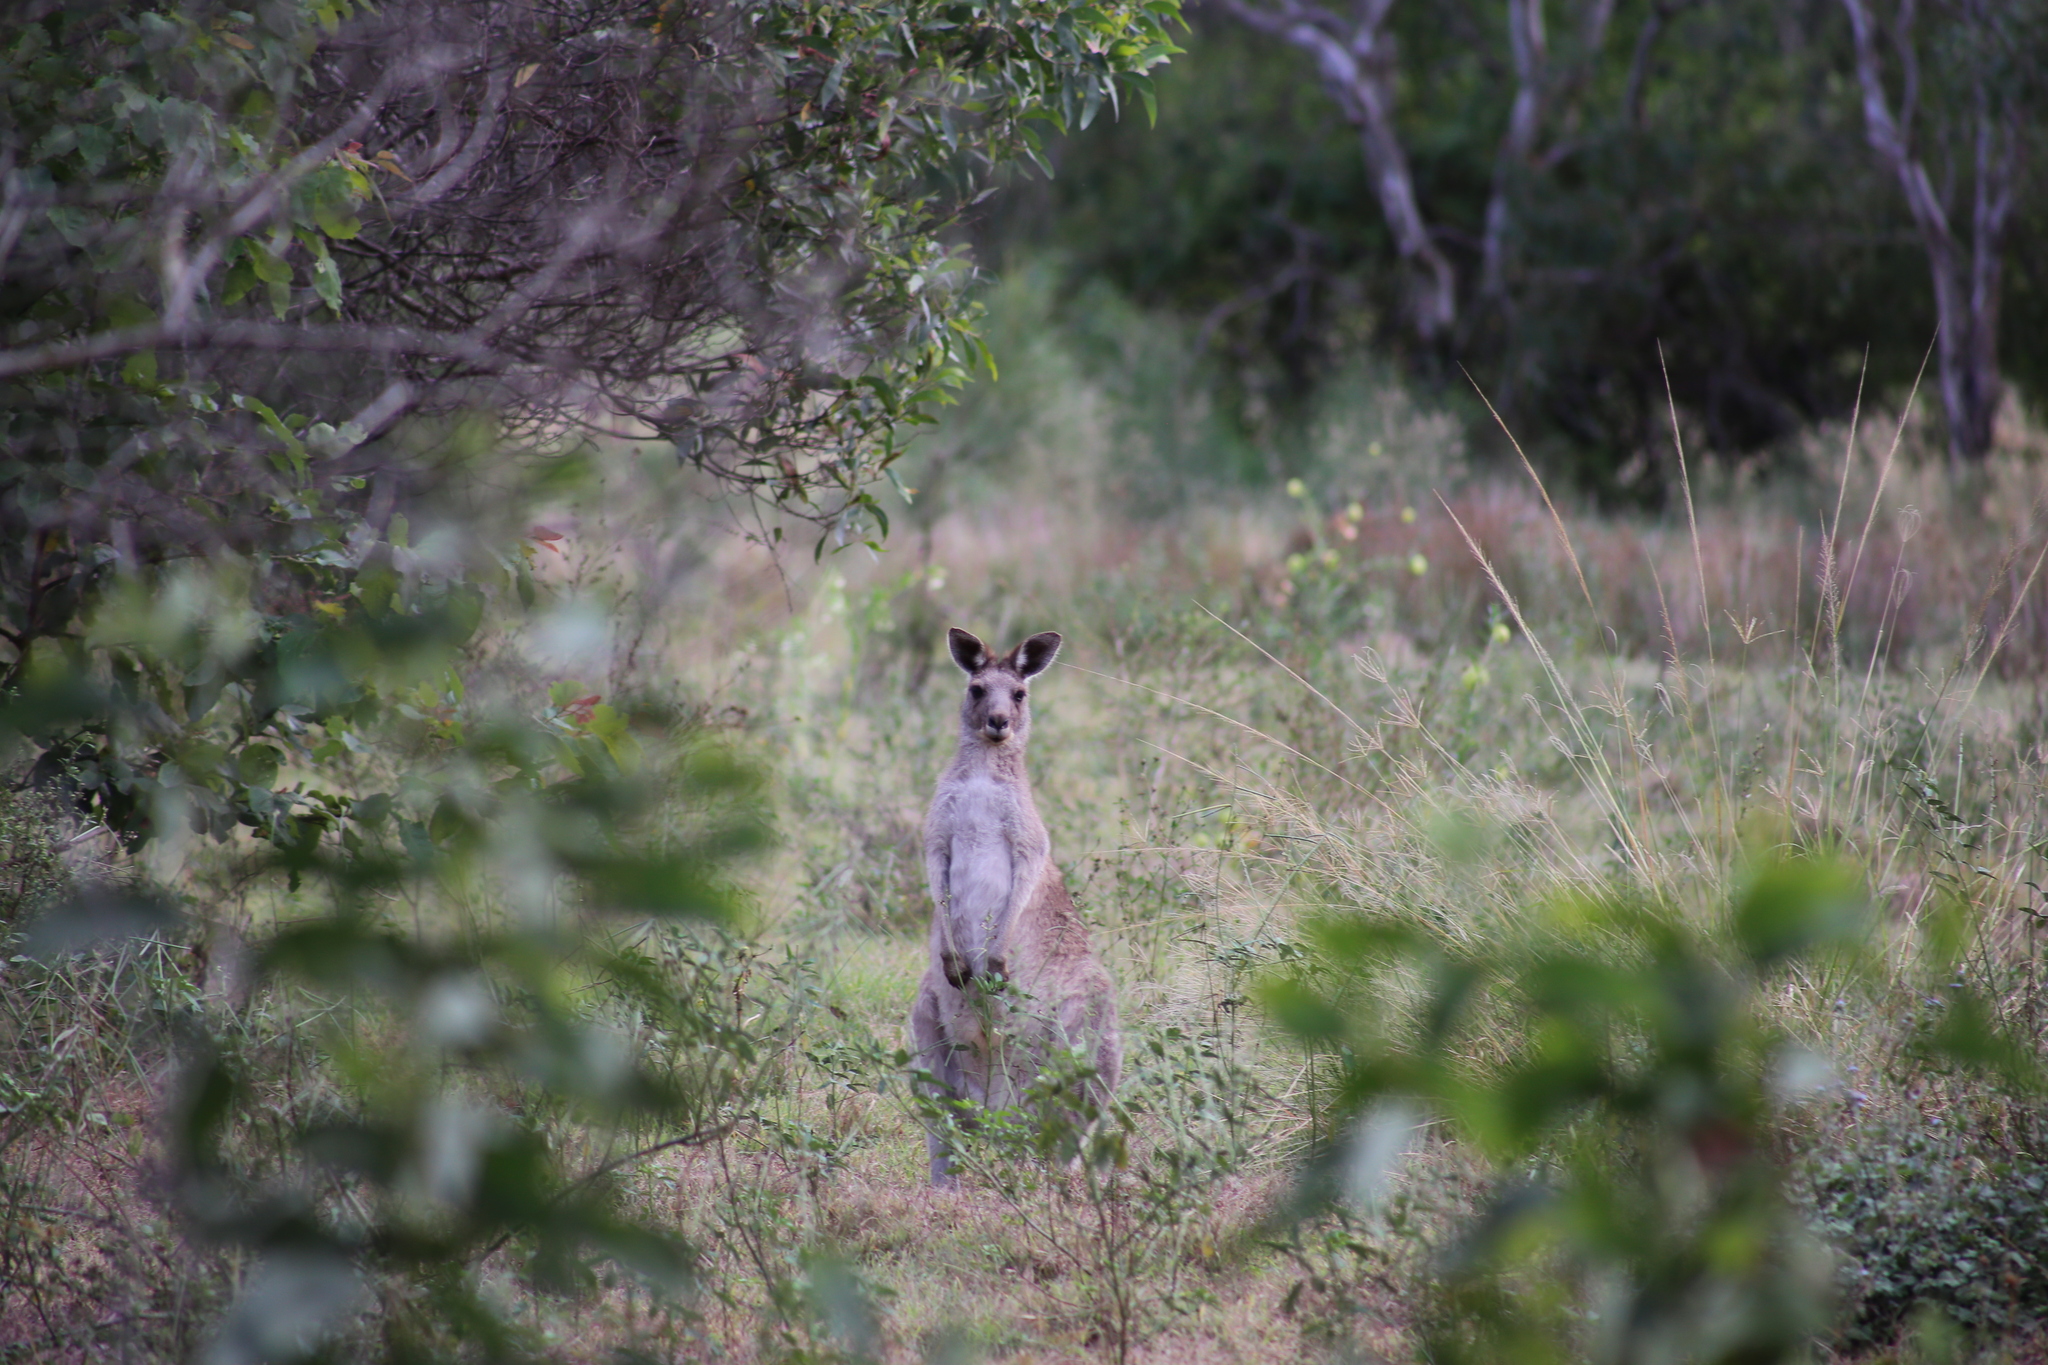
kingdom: Animalia
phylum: Chordata
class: Mammalia
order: Diprotodontia
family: Macropodidae
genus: Macropus
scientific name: Macropus giganteus
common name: Eastern grey kangaroo
